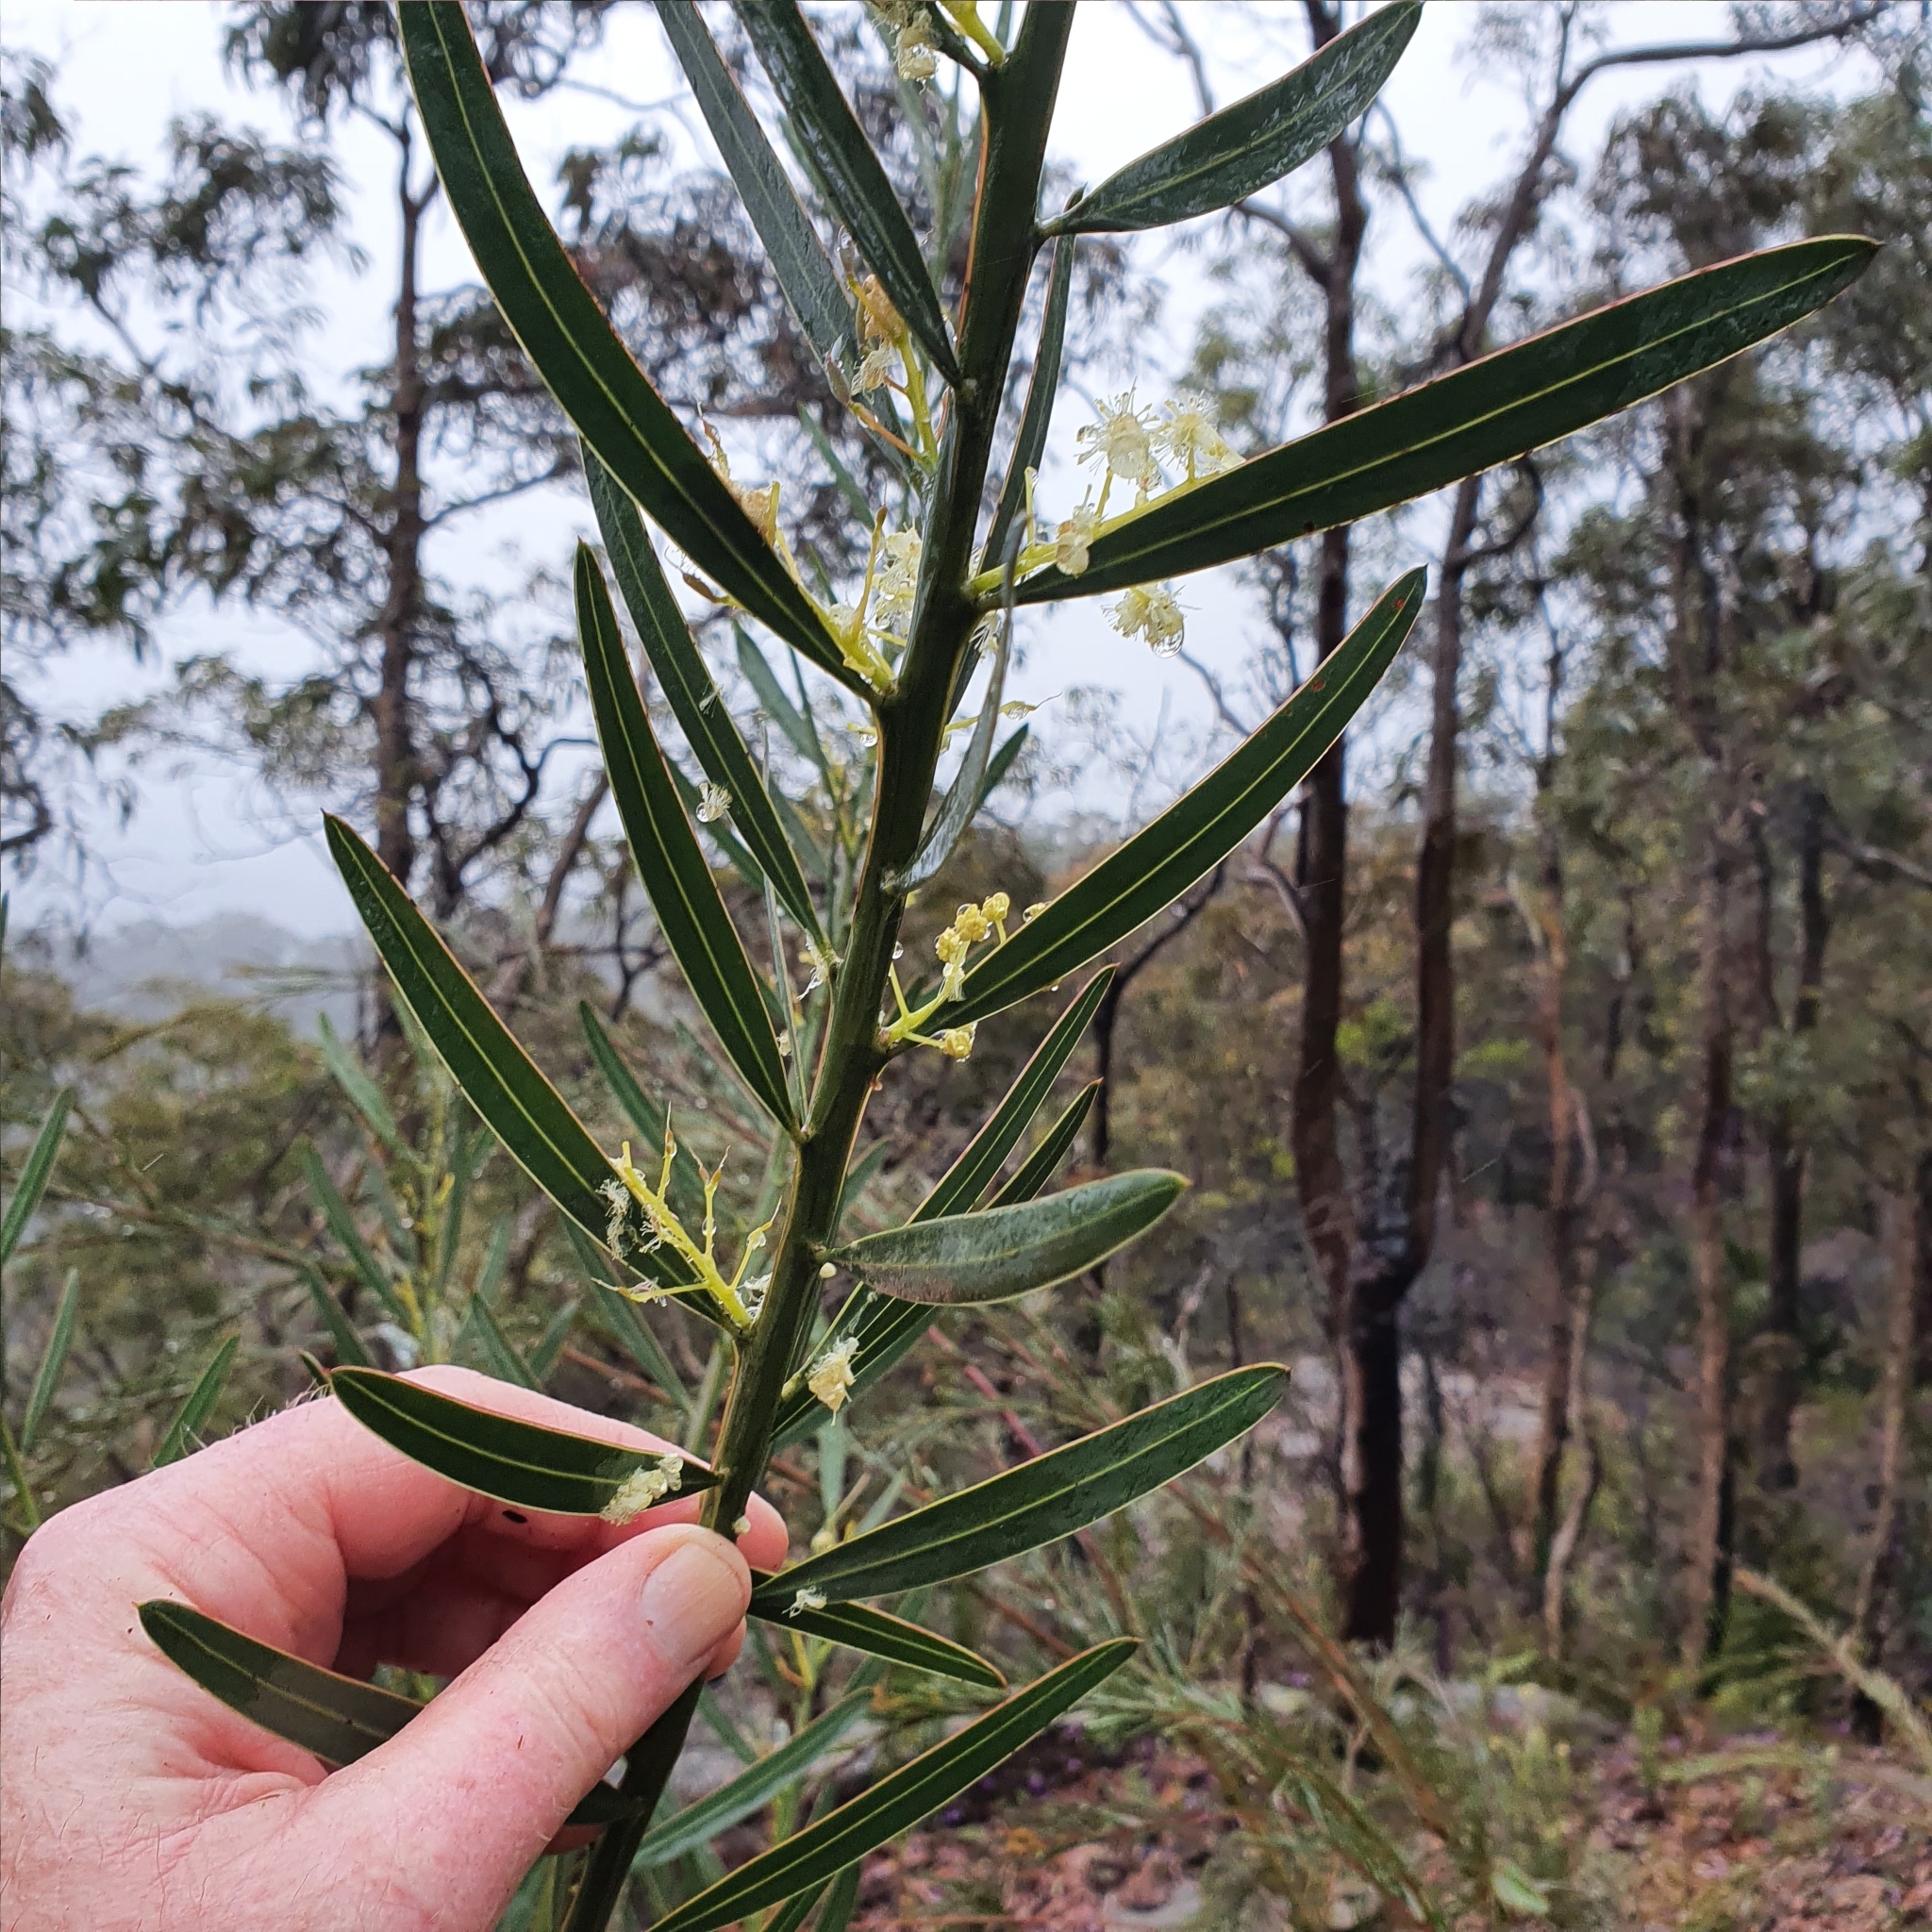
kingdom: Plantae
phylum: Tracheophyta
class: Magnoliopsida
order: Fabales
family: Fabaceae
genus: Acacia
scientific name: Acacia suaveolens
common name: Sweet acacia
